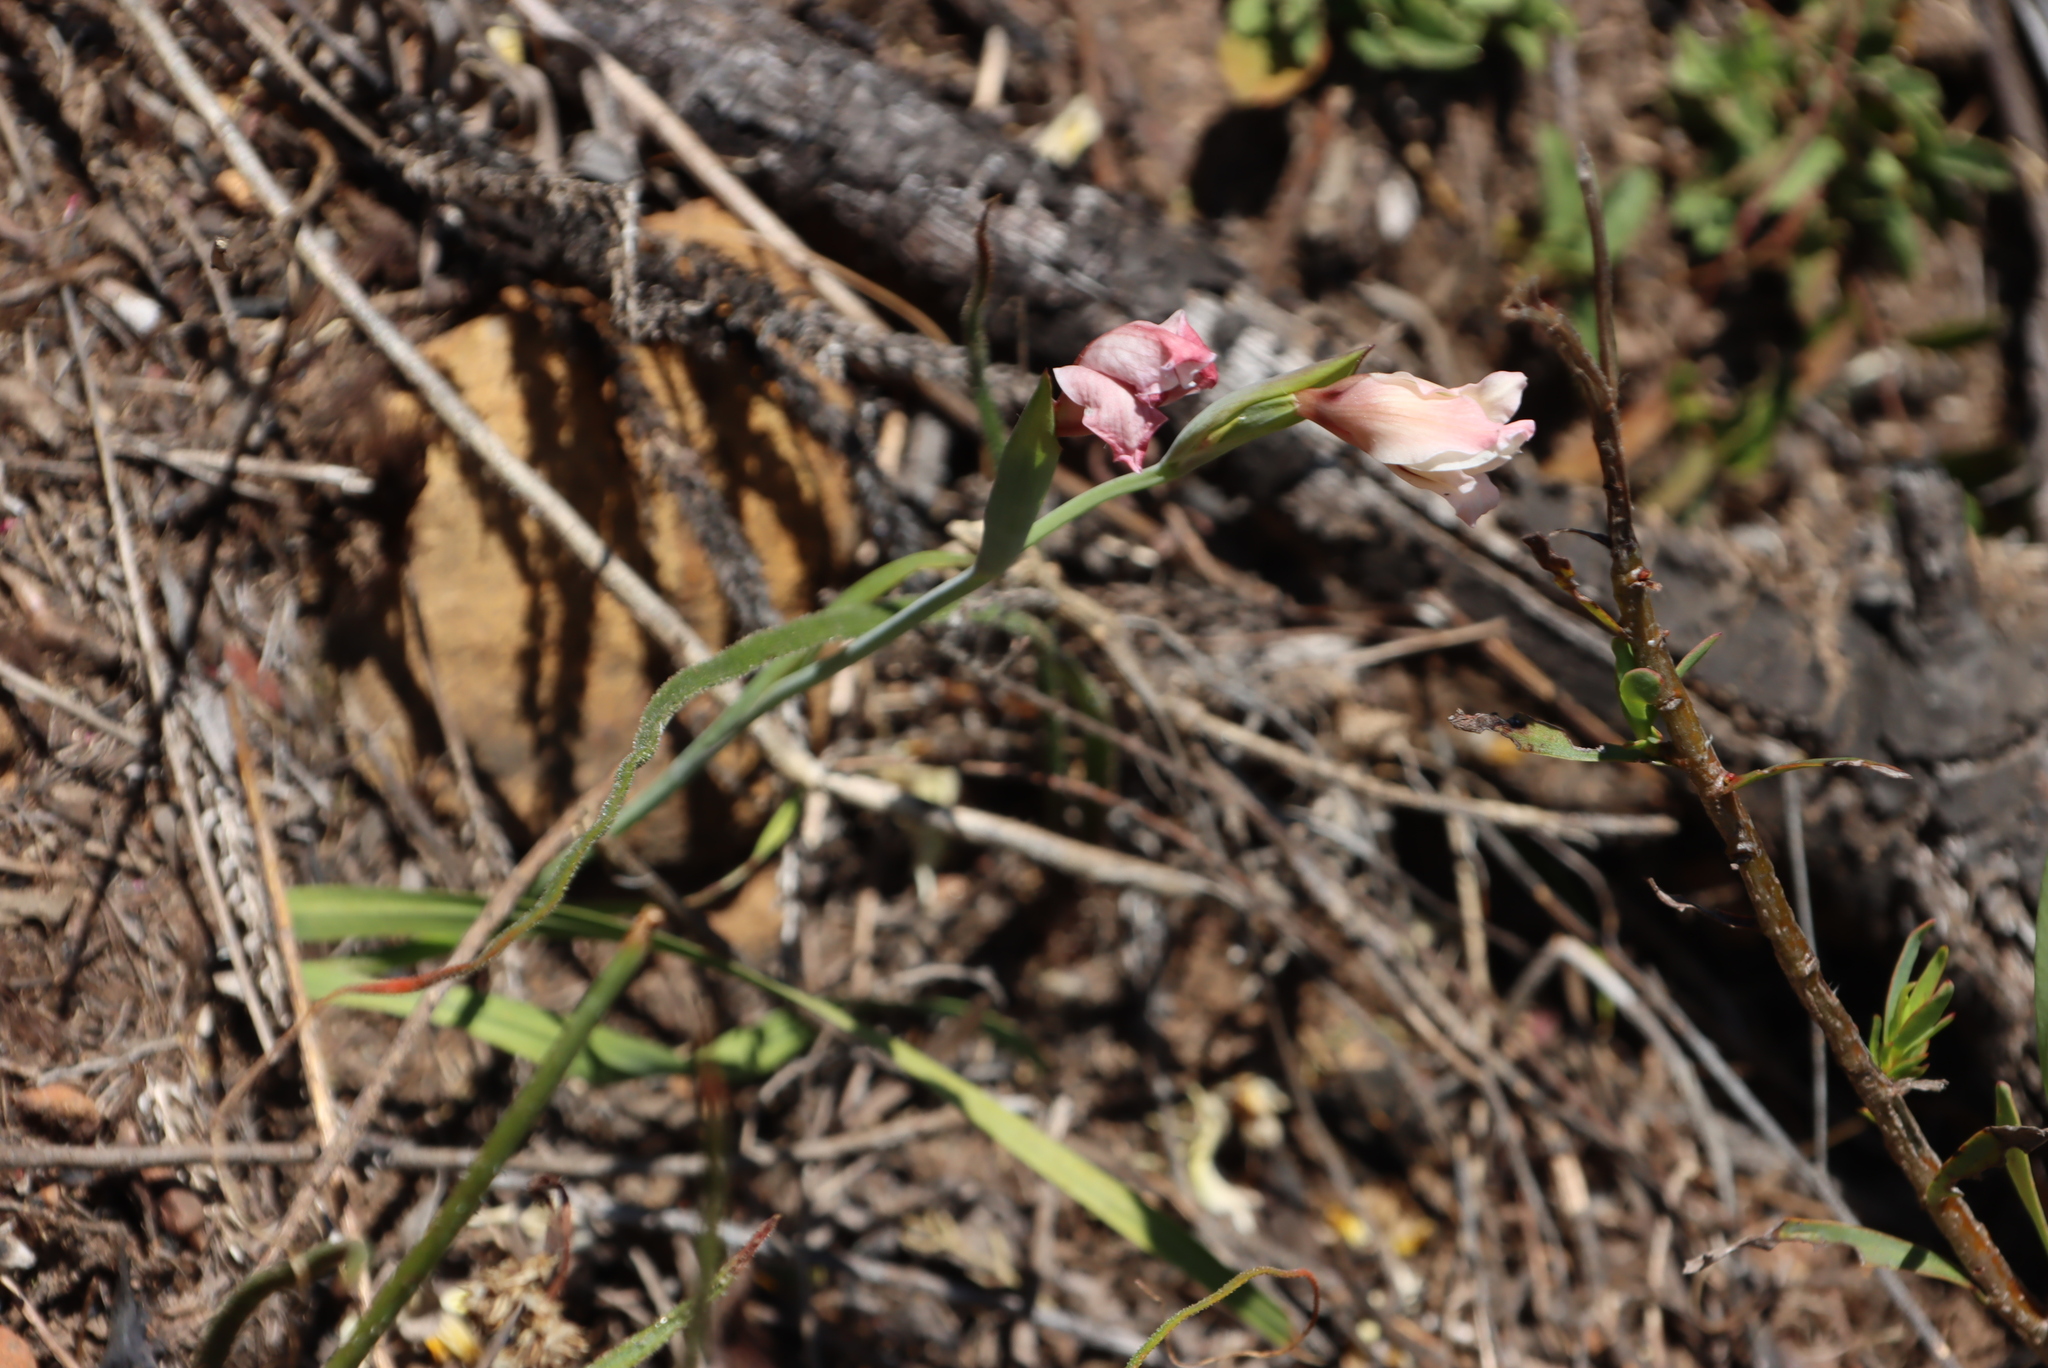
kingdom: Plantae
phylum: Tracheophyta
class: Liliopsida
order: Asparagales
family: Iridaceae
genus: Gladiolus
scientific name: Gladiolus carneus
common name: Painted-lady
